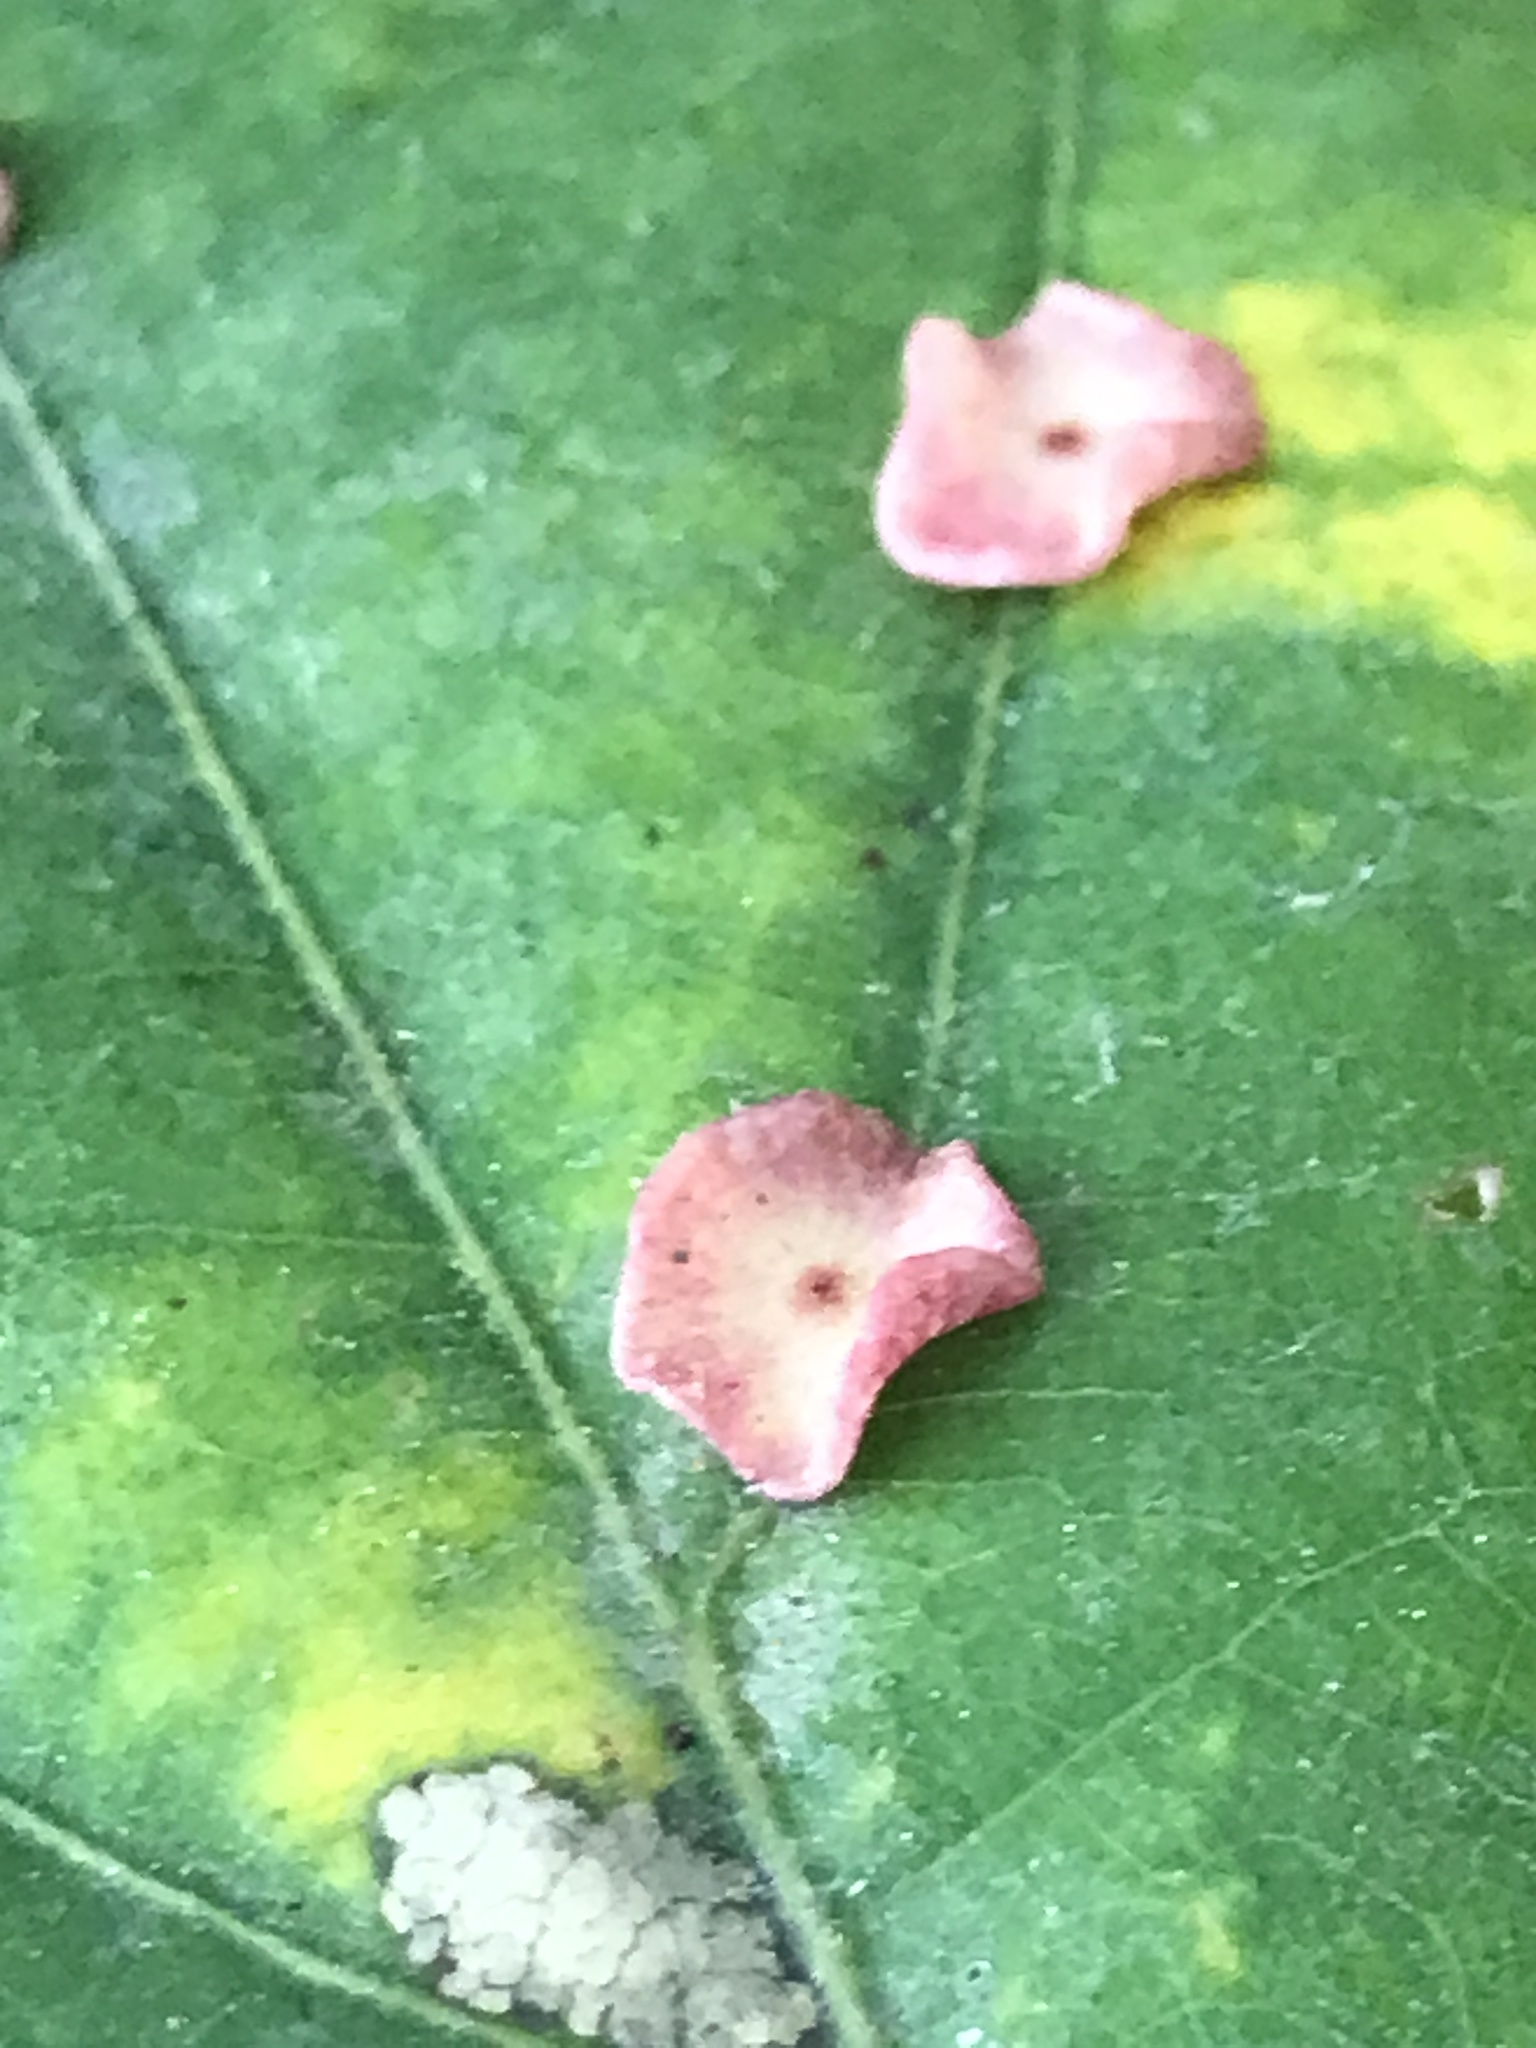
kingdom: Animalia
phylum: Arthropoda
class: Insecta
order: Hymenoptera
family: Cynipidae
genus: Neuroterus
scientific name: Neuroterus albipes
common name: Smooth spangle gall
